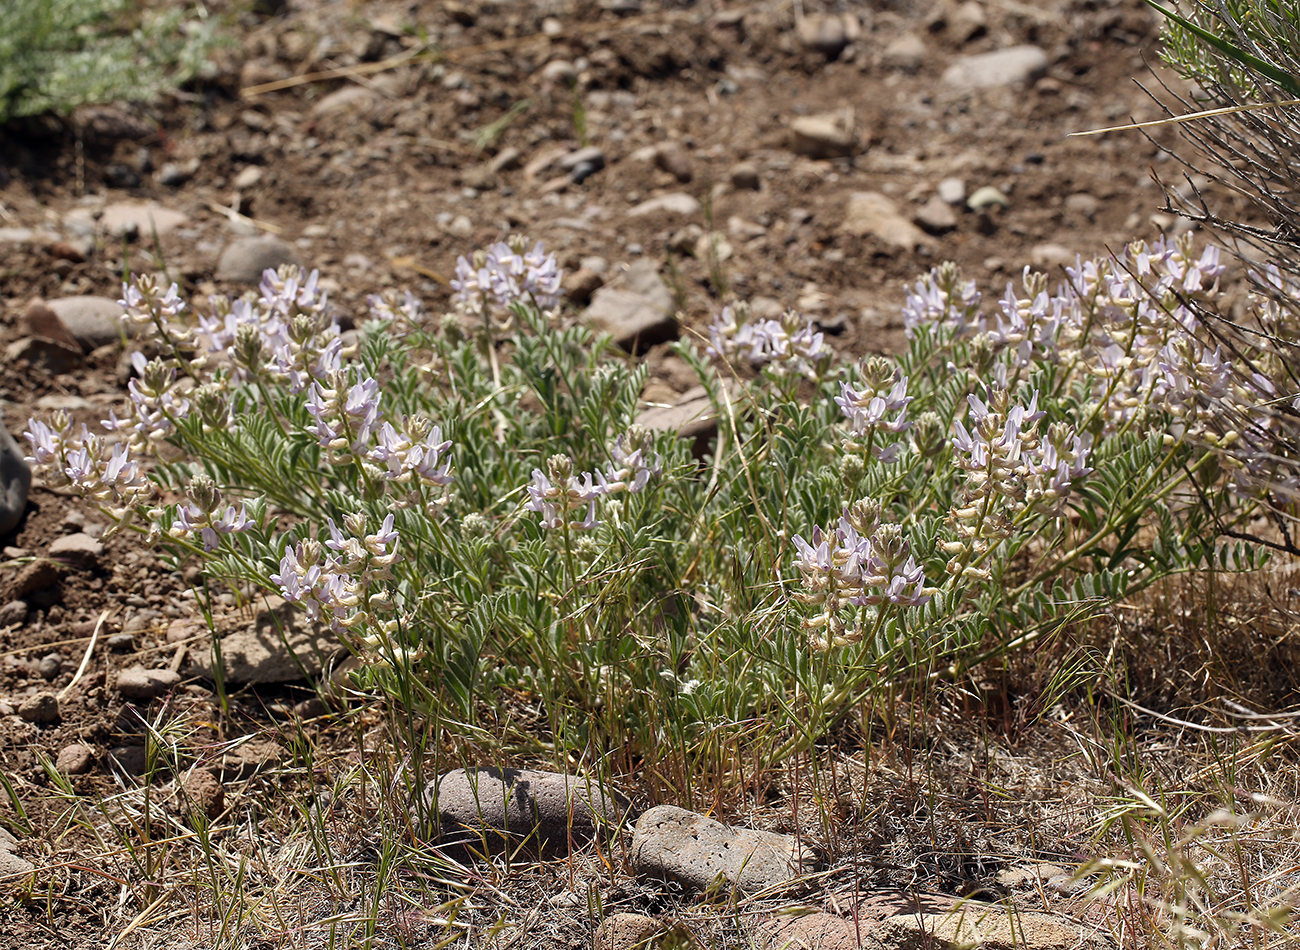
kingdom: Plantae
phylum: Tracheophyta
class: Magnoliopsida
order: Fabales
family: Fabaceae
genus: Astragalus
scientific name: Astragalus andersonii
